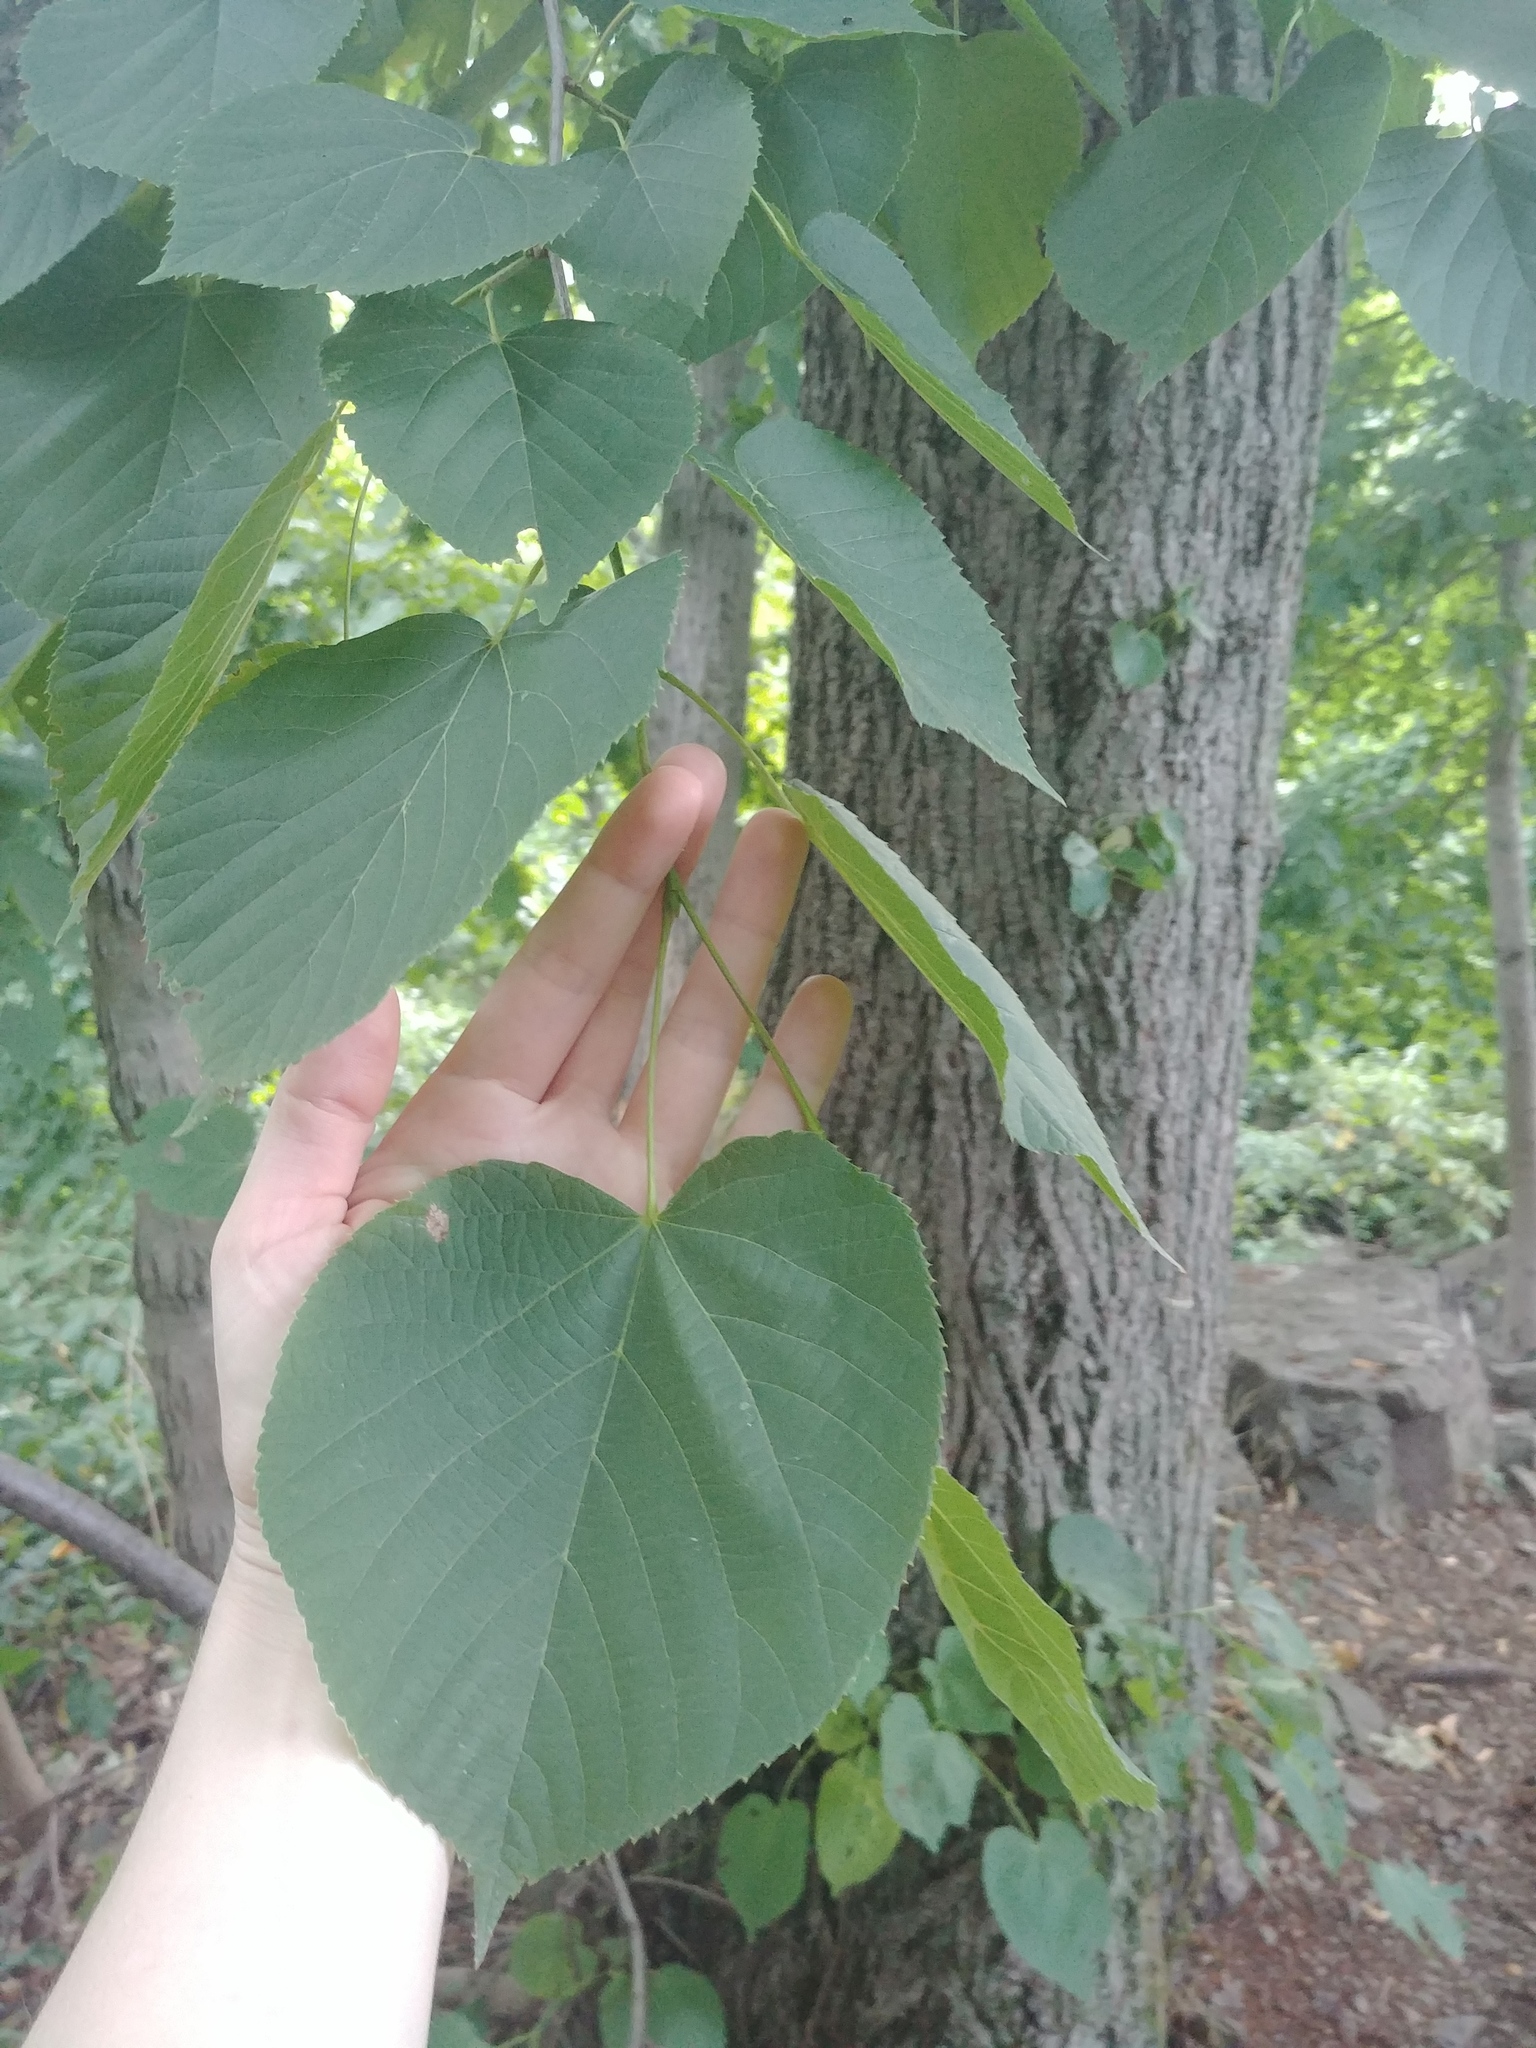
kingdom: Plantae
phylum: Tracheophyta
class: Magnoliopsida
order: Malvales
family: Malvaceae
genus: Tilia
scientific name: Tilia americana
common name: Basswood
